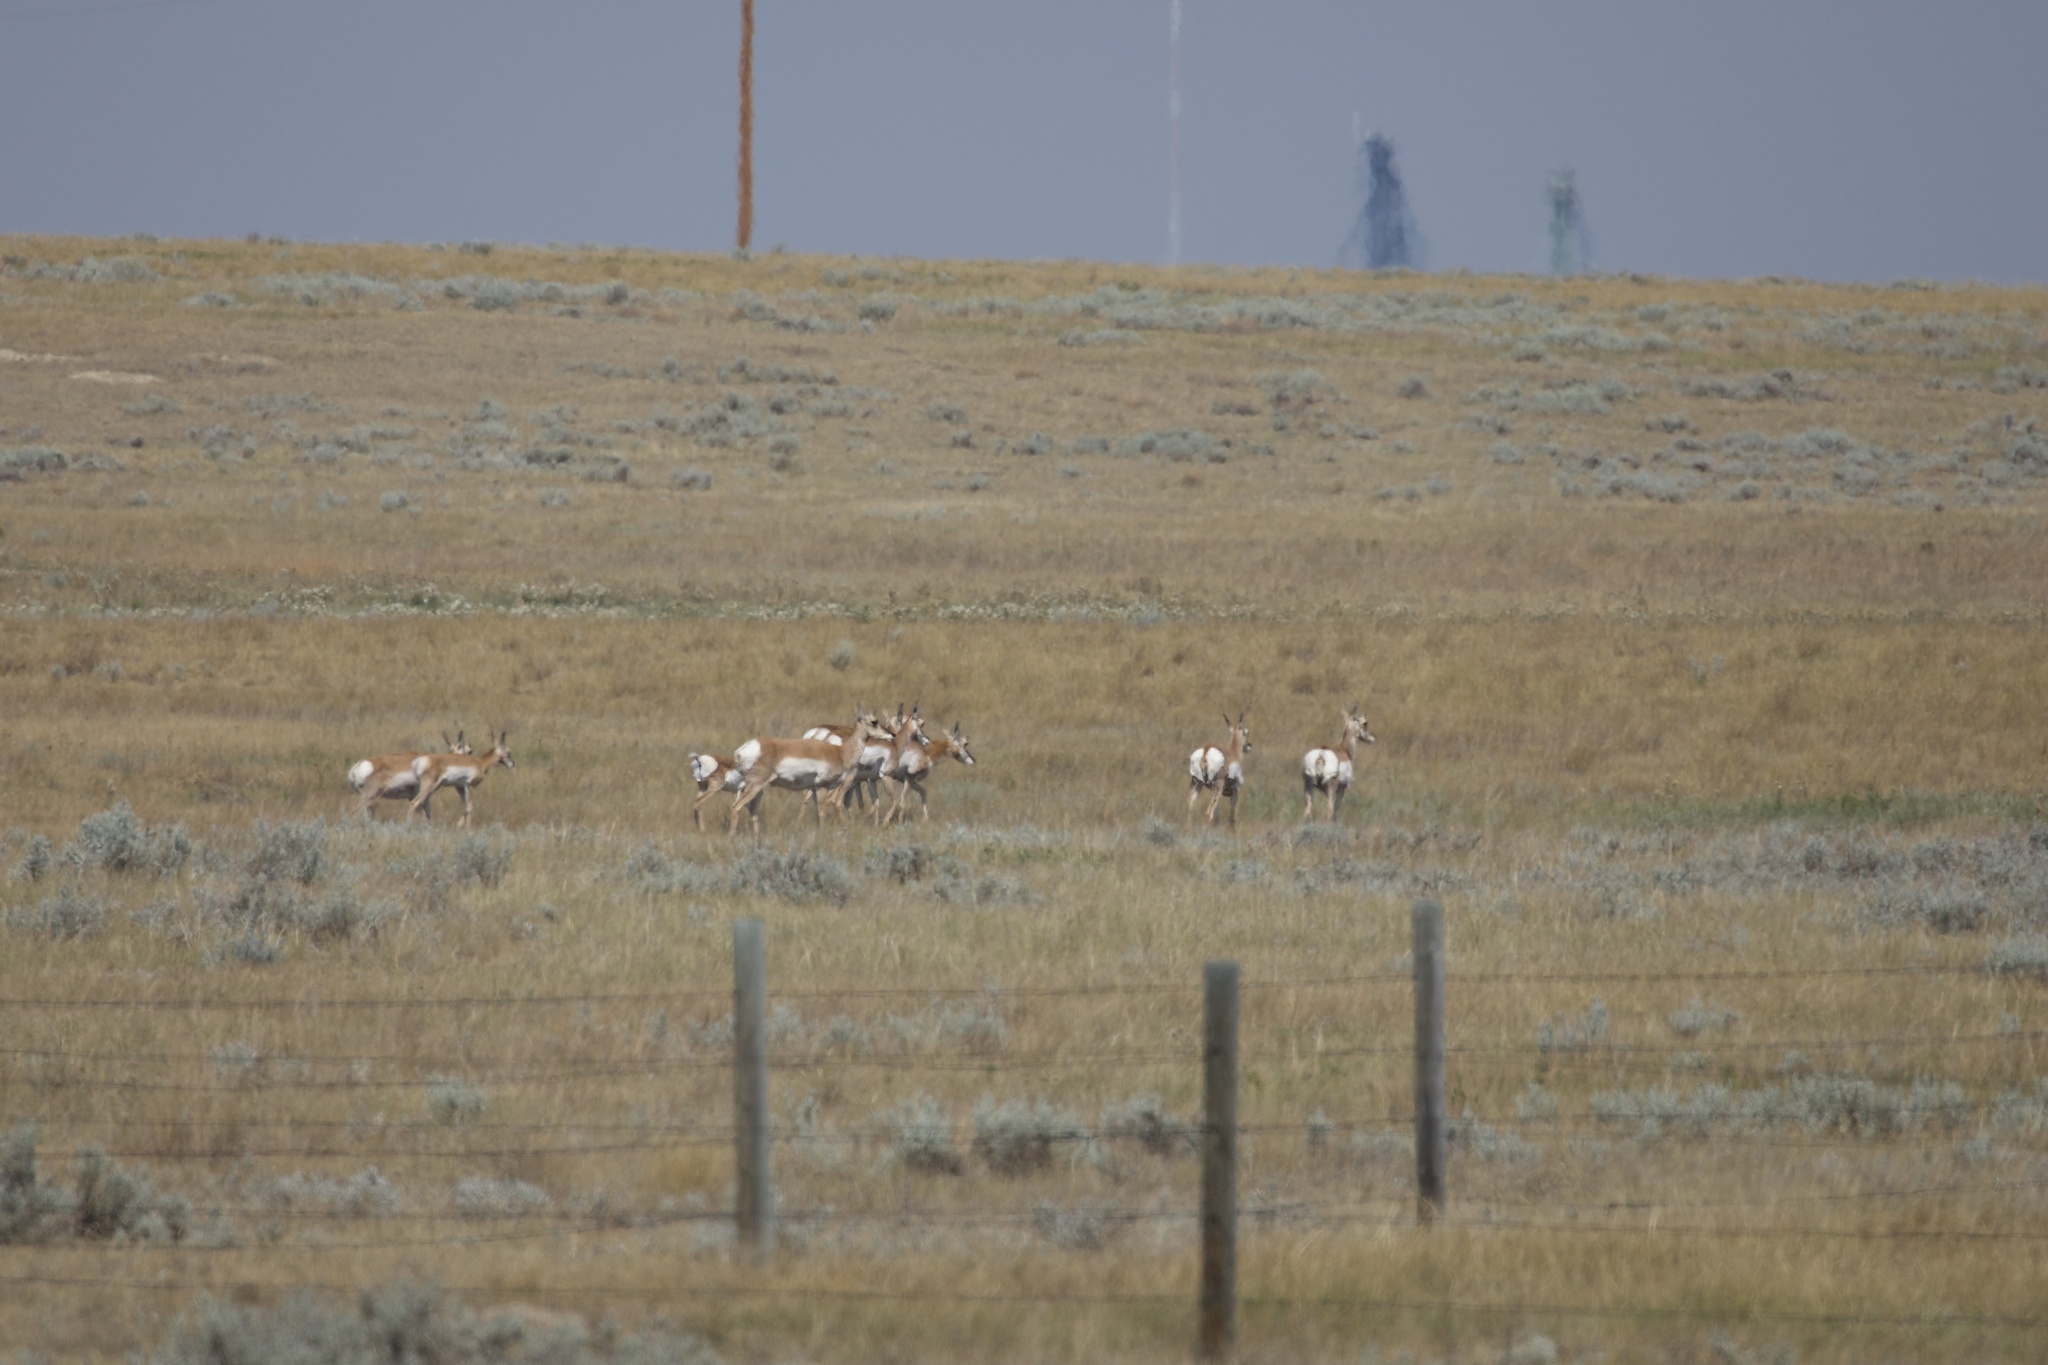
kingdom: Animalia
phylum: Chordata
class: Mammalia
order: Artiodactyla
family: Antilocapridae
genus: Antilocapra
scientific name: Antilocapra americana
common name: Pronghorn
